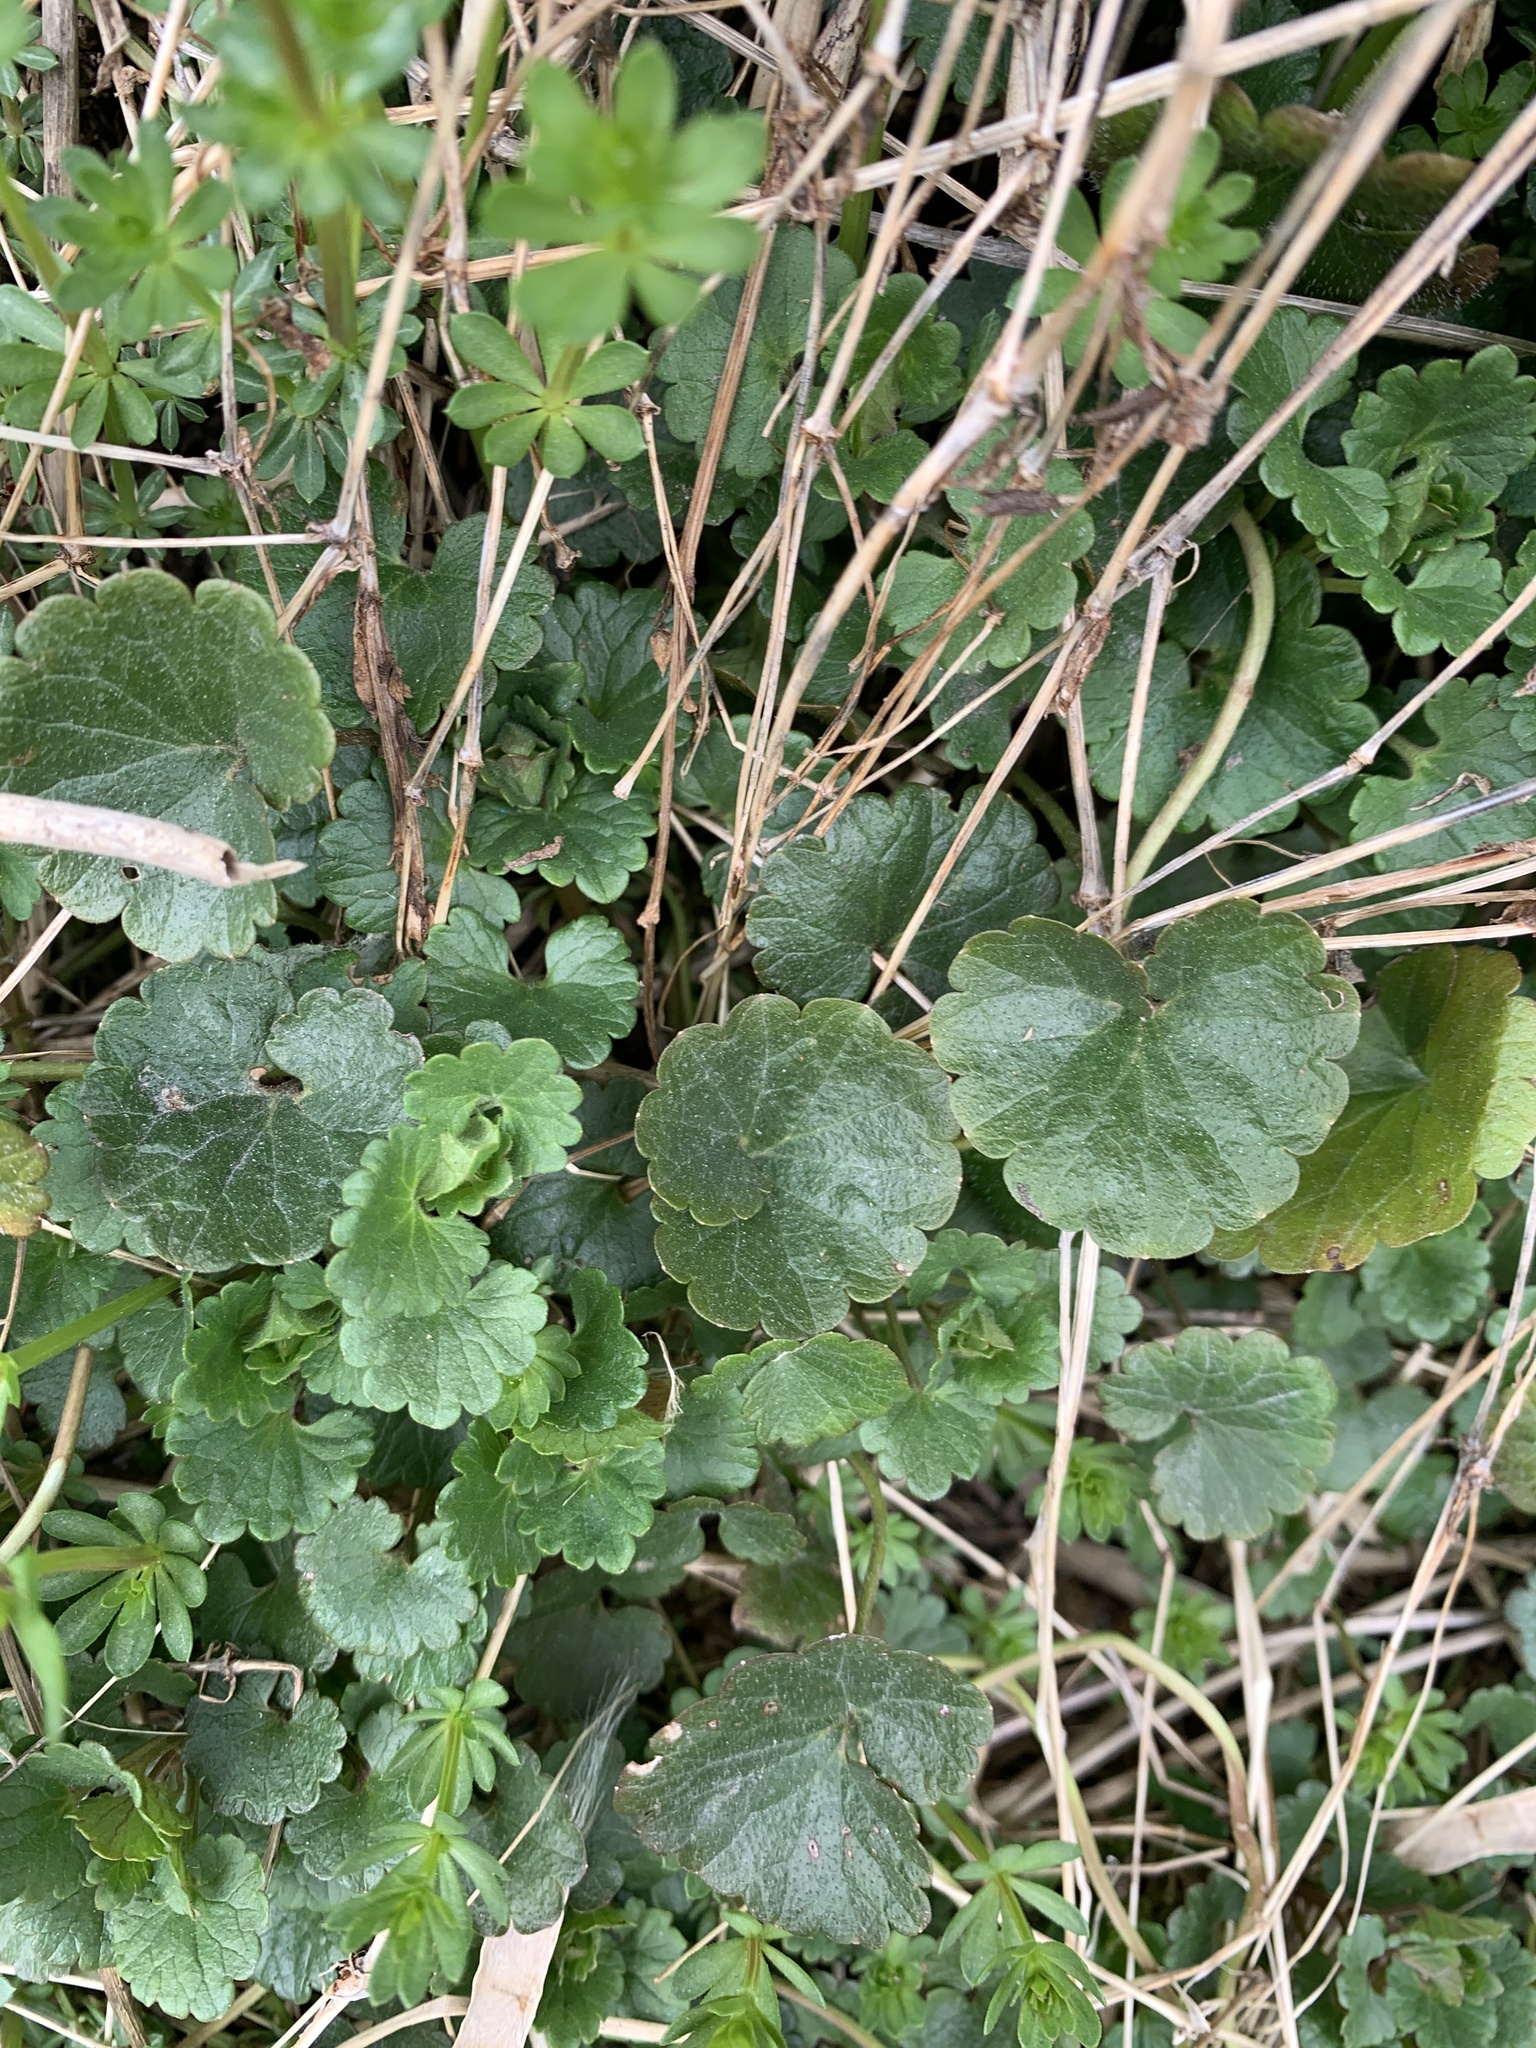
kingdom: Plantae
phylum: Tracheophyta
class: Magnoliopsida
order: Lamiales
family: Lamiaceae
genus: Glechoma
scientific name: Glechoma hederacea
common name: Ground ivy
